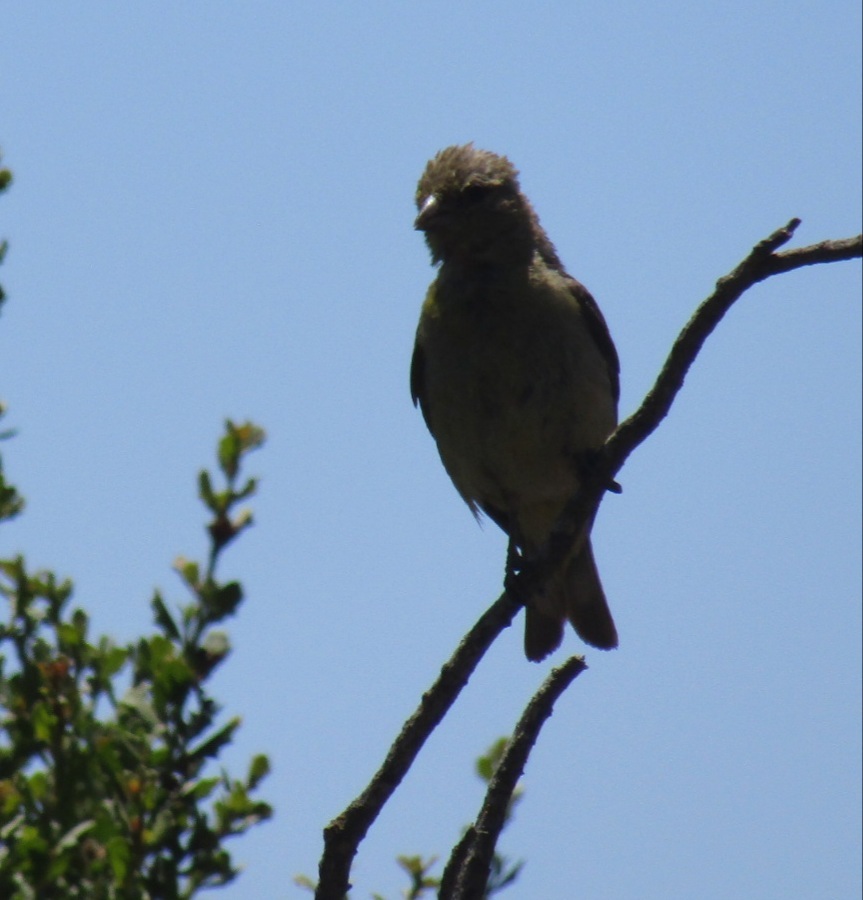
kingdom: Animalia
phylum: Chordata
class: Aves
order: Passeriformes
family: Fringillidae
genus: Spinus
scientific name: Spinus psaltria
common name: Lesser goldfinch
